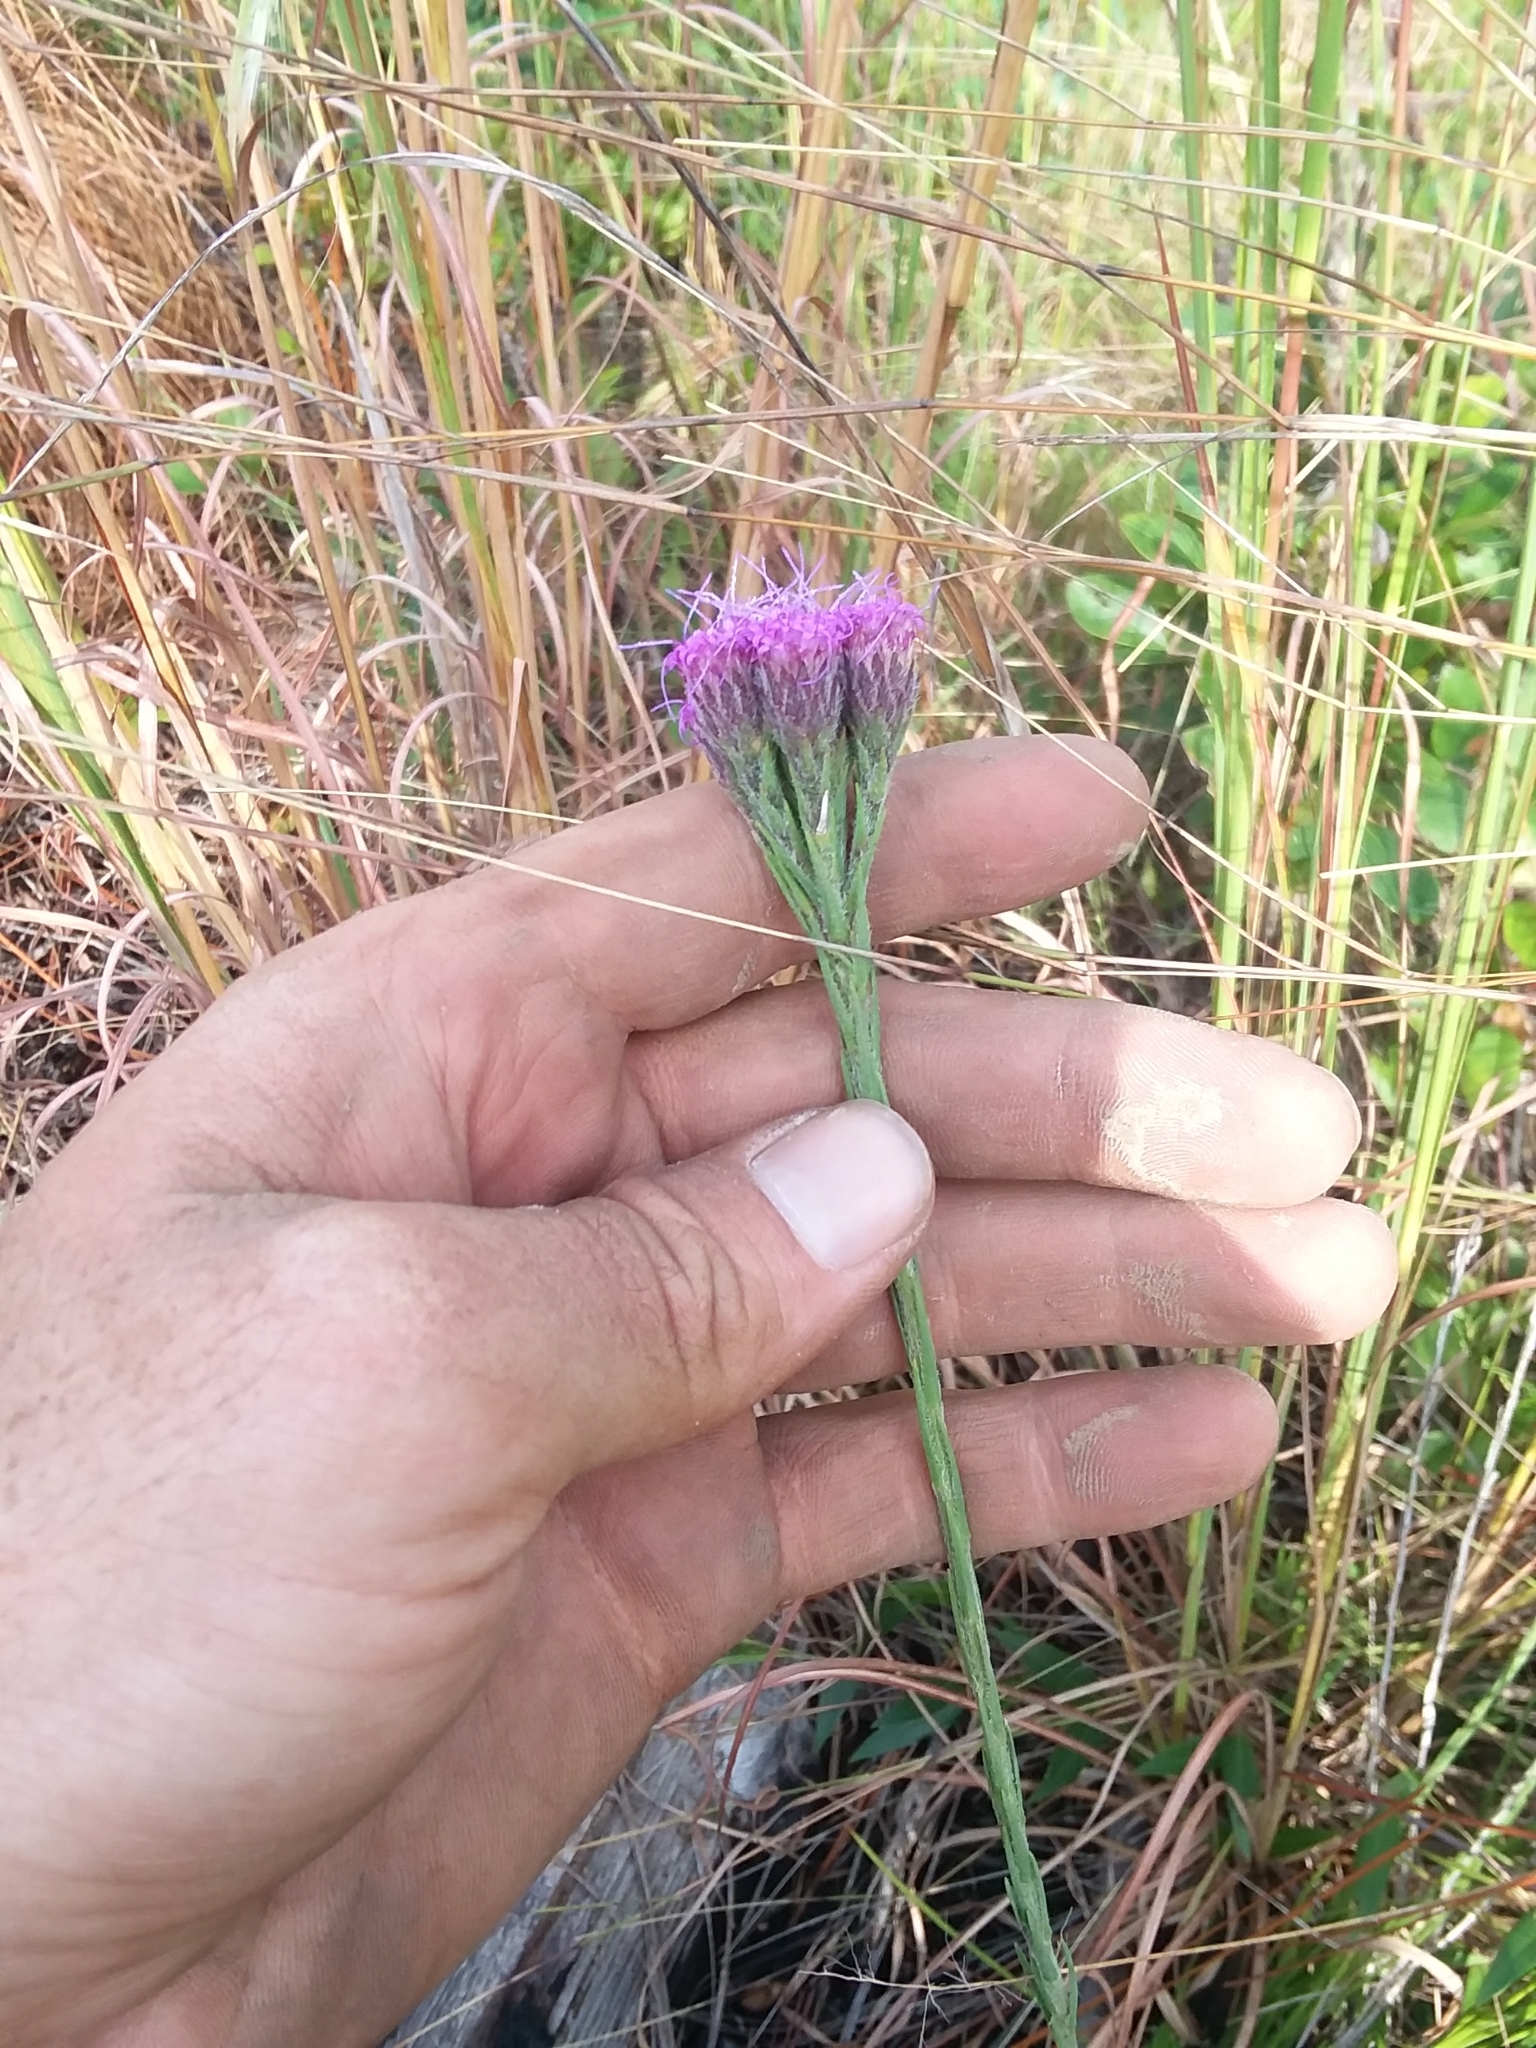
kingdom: Plantae
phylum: Tracheophyta
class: Magnoliopsida
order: Asterales
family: Asteraceae
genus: Carphephorus
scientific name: Carphephorus pseudoliatris
